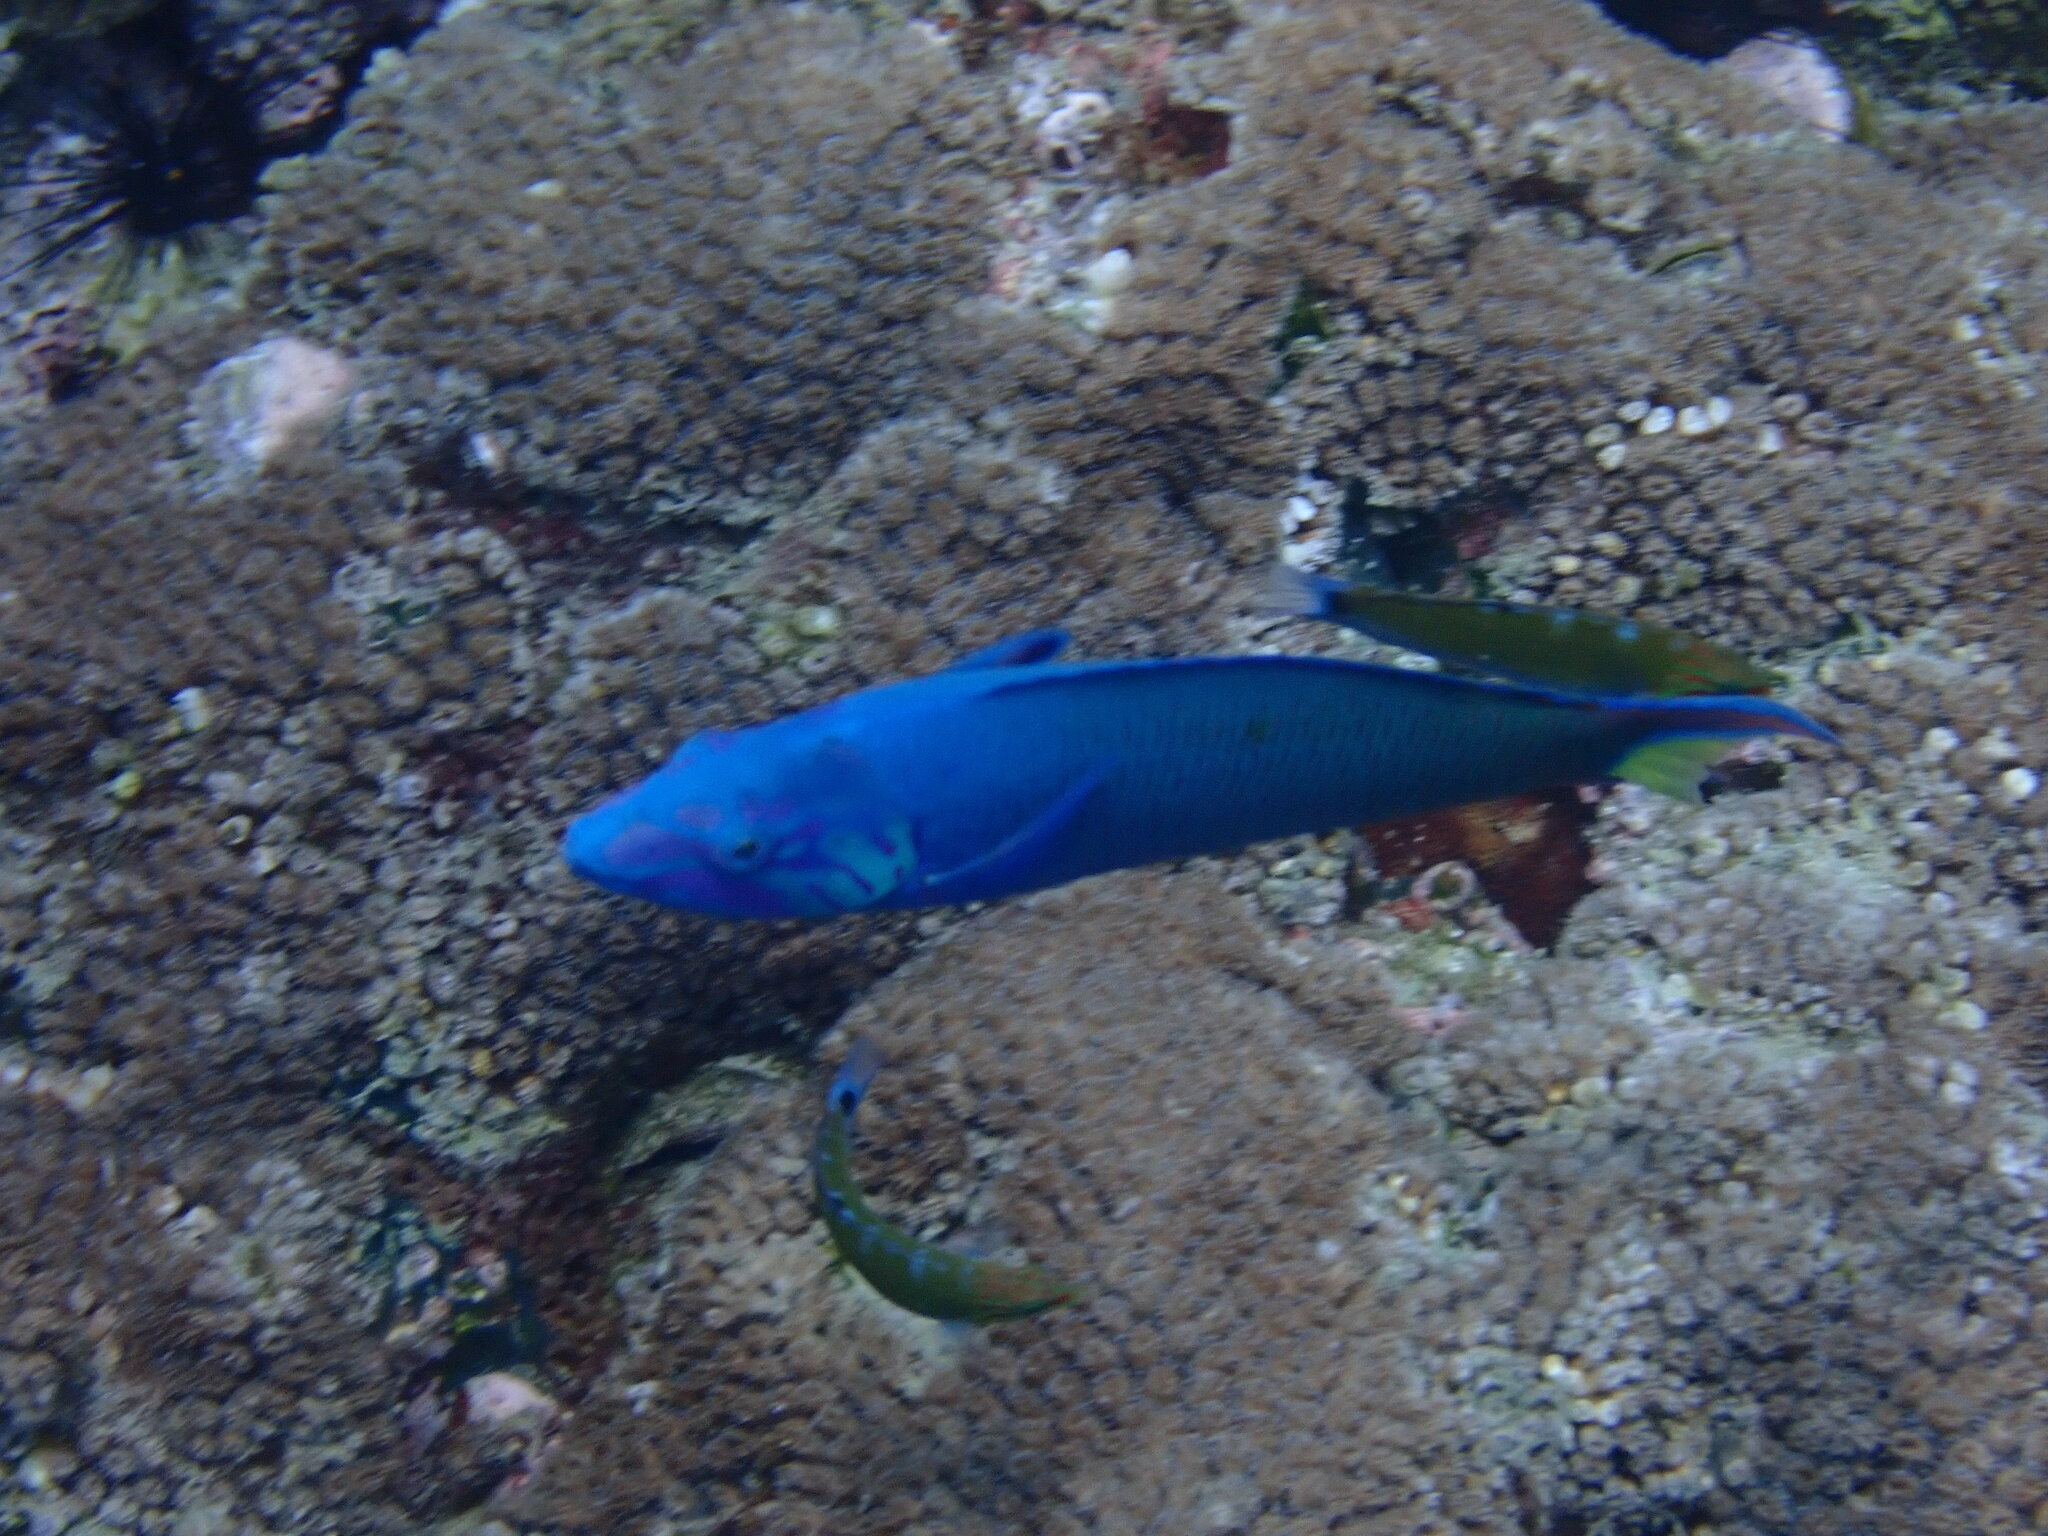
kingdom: Animalia
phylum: Chordata
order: Perciformes
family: Labridae
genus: Thalassoma
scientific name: Thalassoma lunare
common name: Blue wrasse
